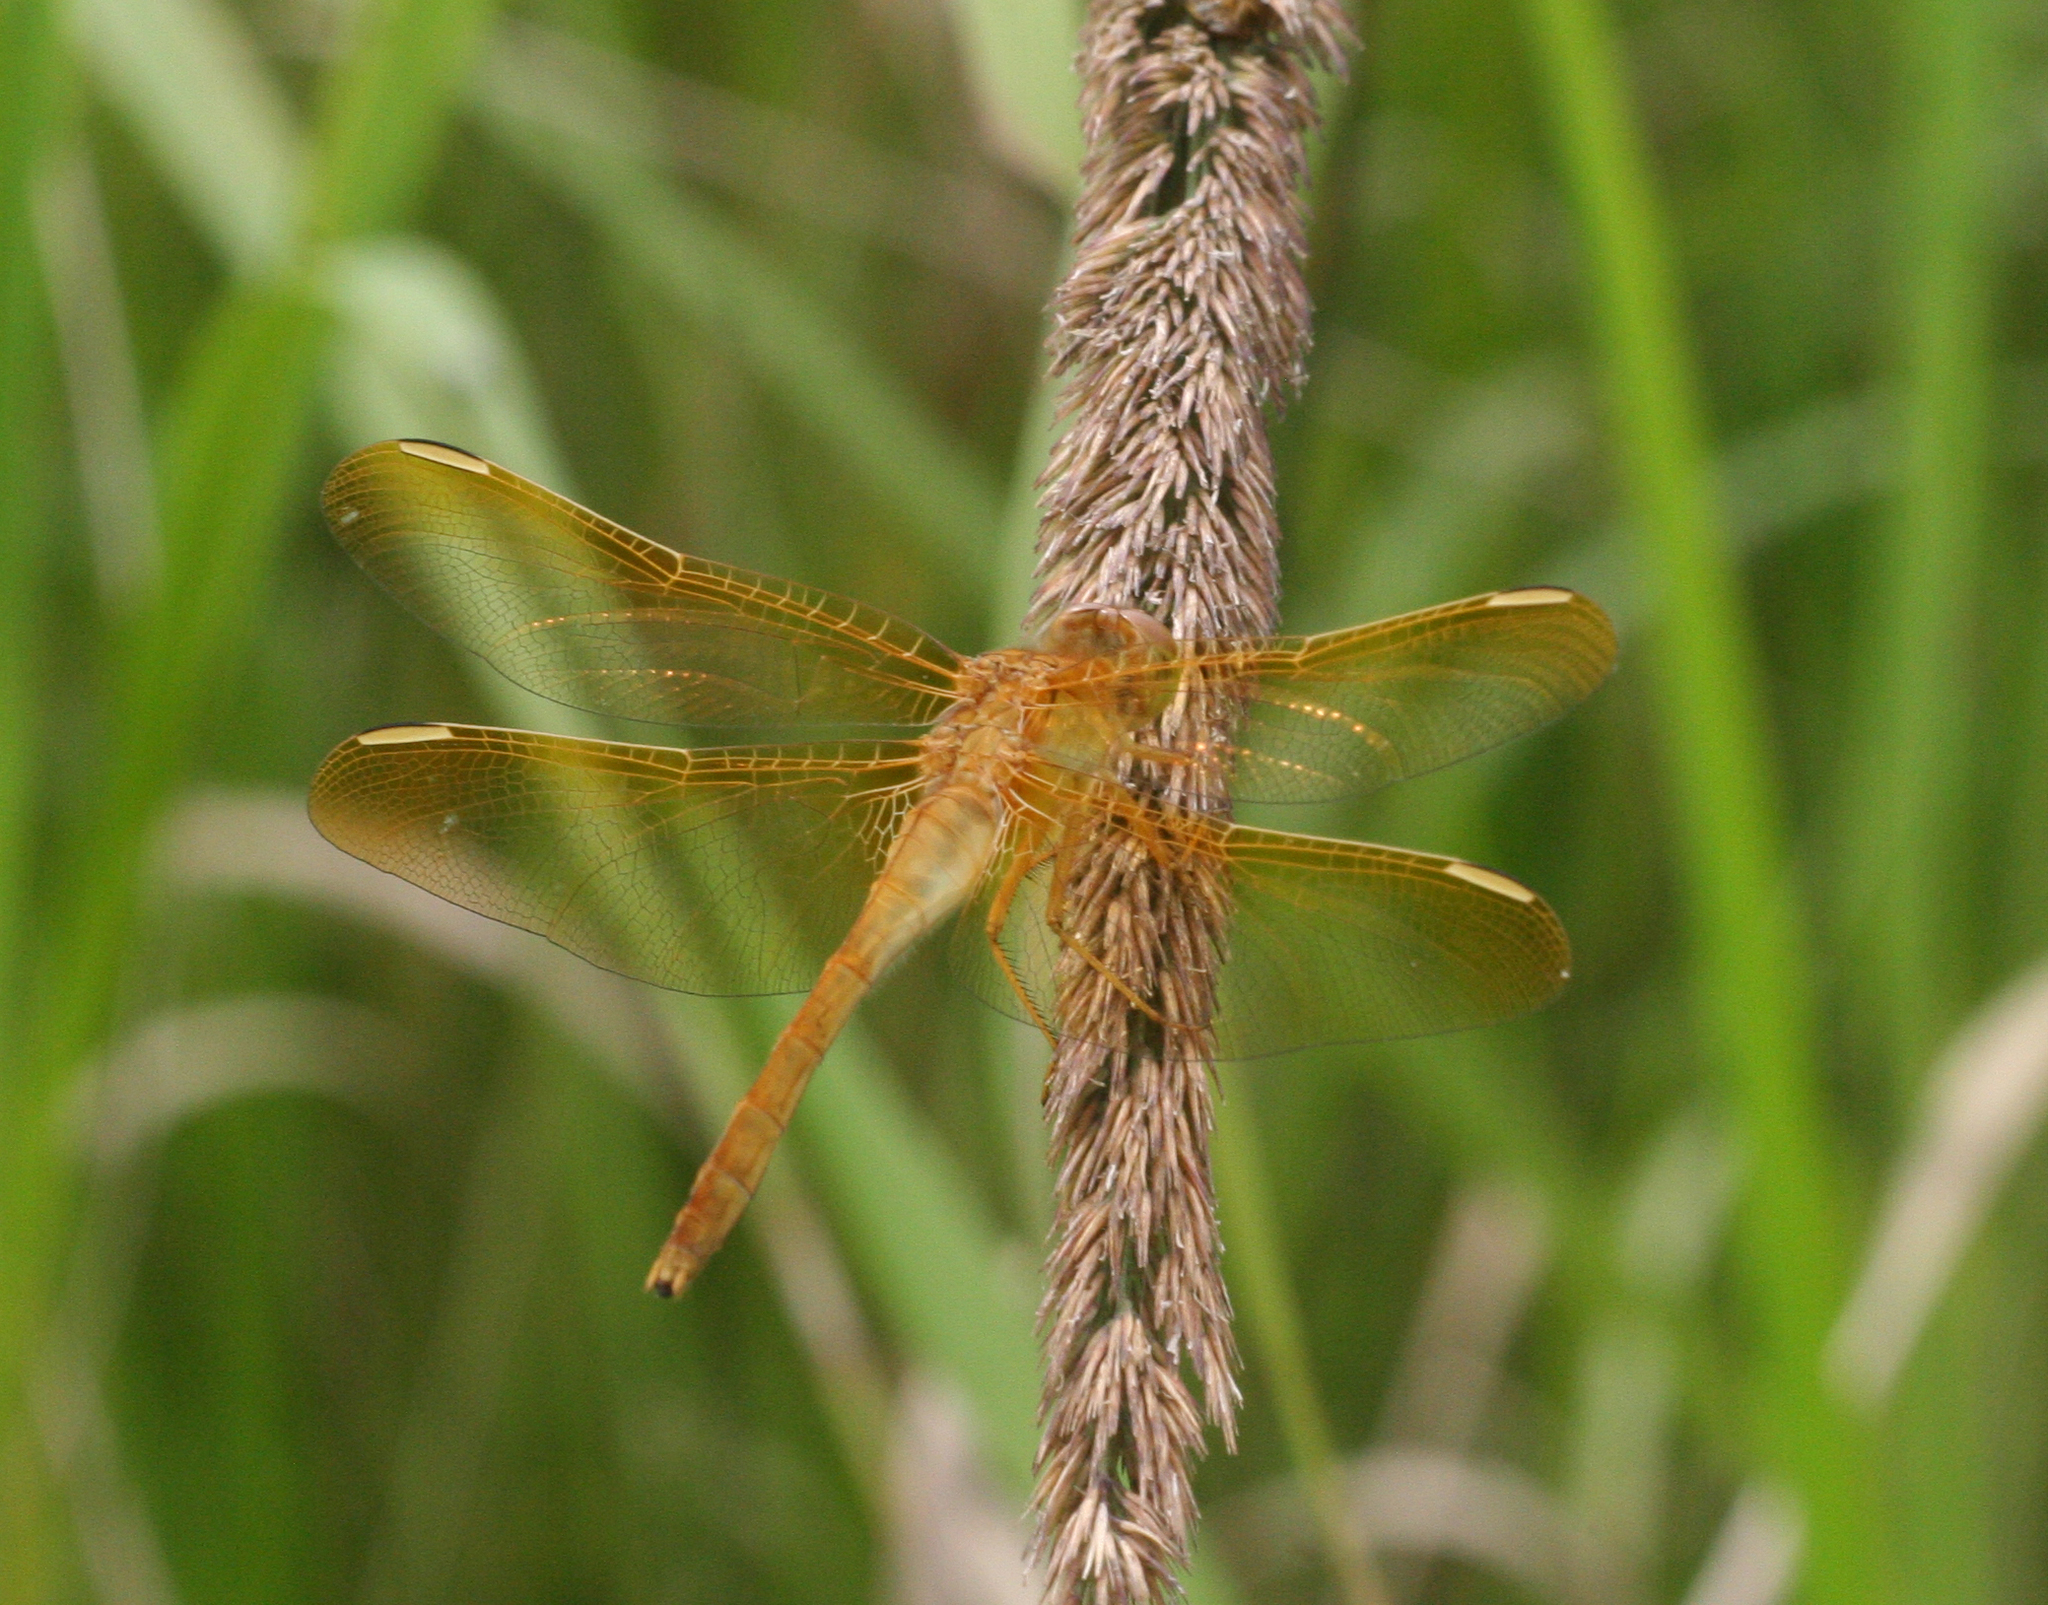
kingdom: Animalia
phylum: Arthropoda
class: Insecta
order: Odonata
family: Libellulidae
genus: Sympetrum
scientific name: Sympetrum uniforme
